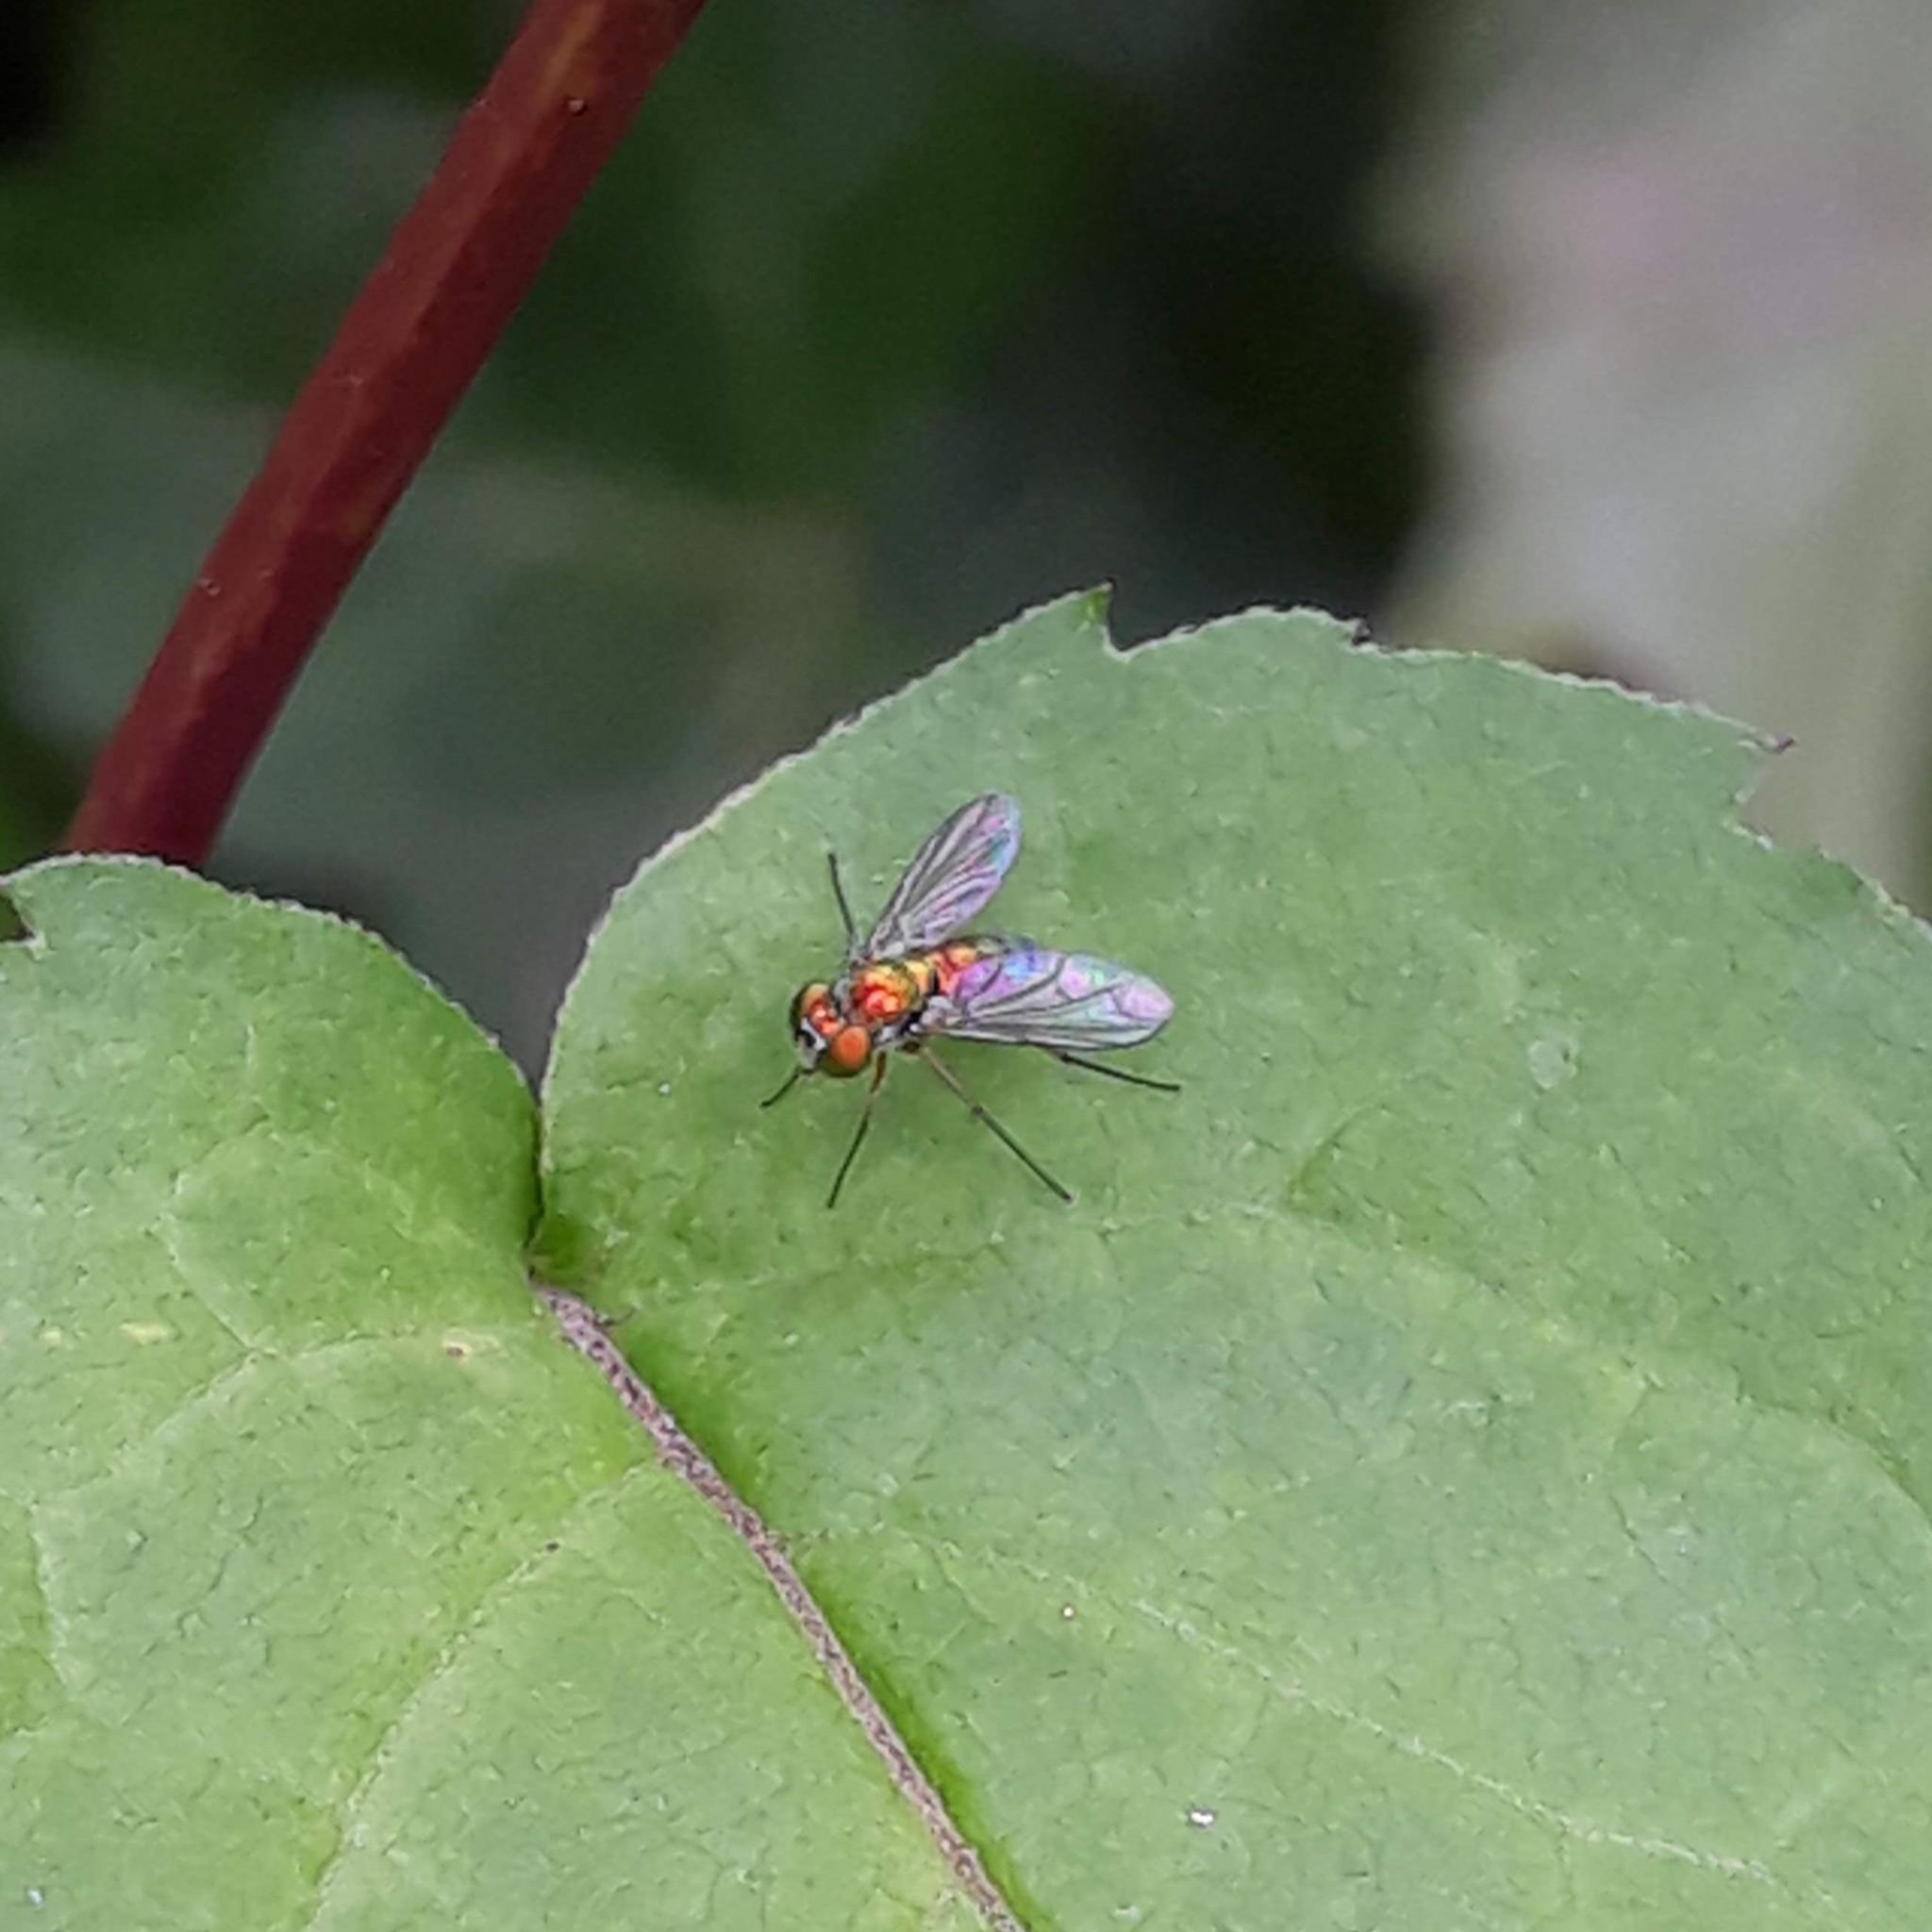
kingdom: Animalia
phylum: Arthropoda
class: Insecta
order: Diptera
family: Dolichopodidae
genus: Condylostylus
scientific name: Condylostylus
